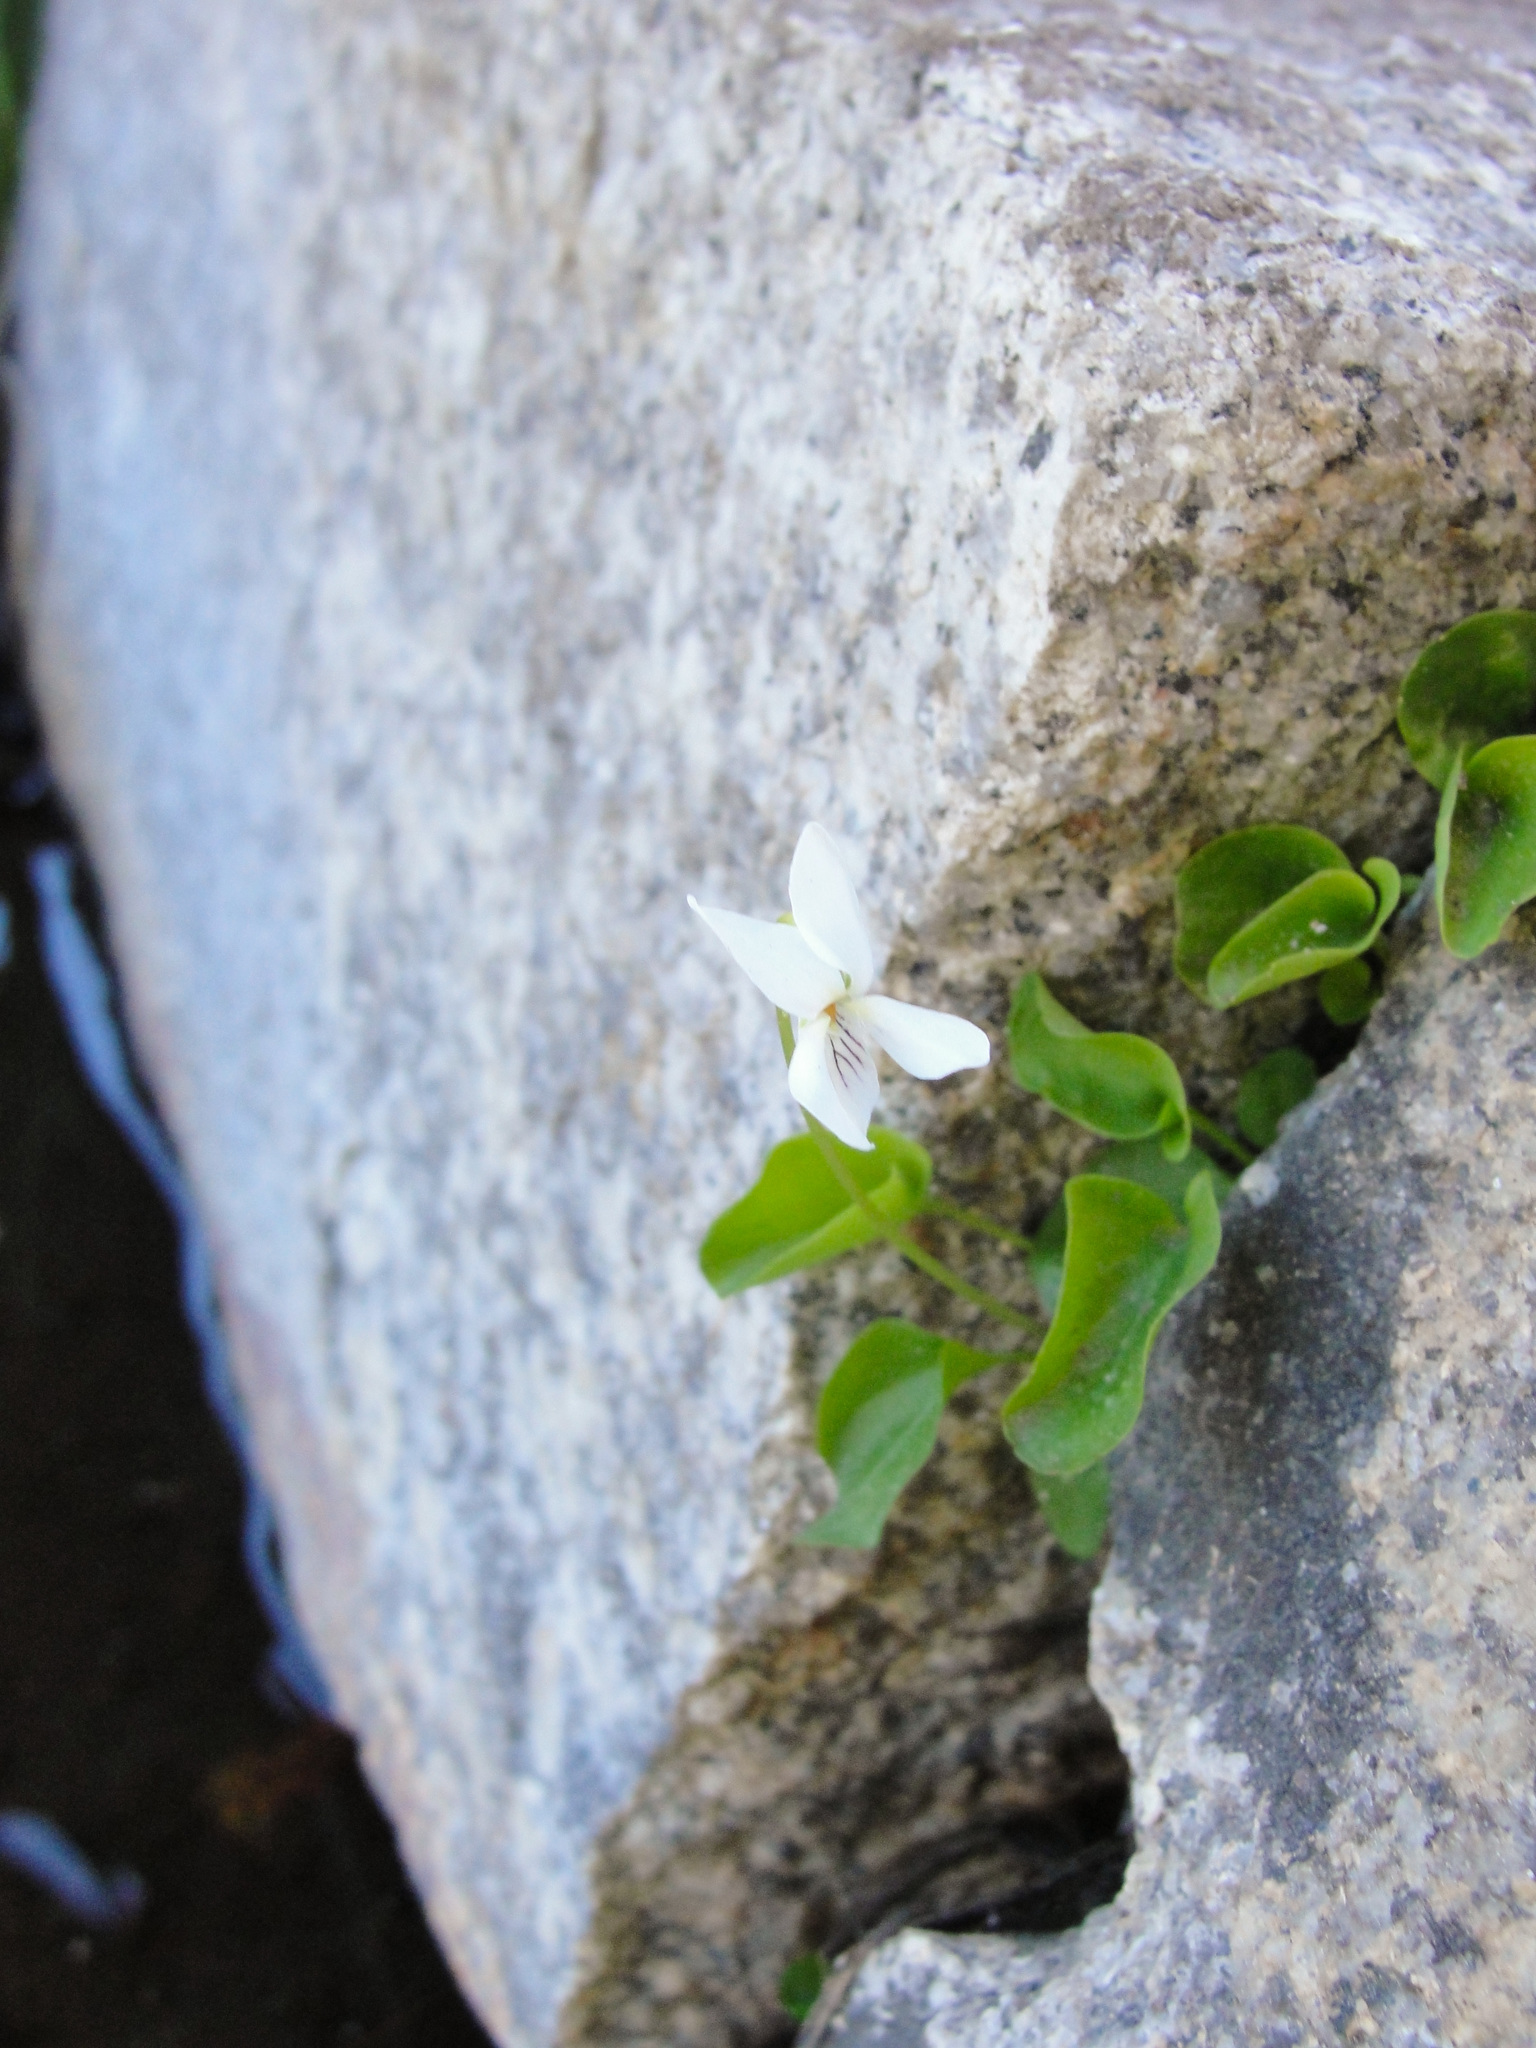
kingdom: Plantae
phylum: Tracheophyta
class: Magnoliopsida
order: Malpighiales
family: Violaceae
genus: Viola
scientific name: Viola macloskeyi
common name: Macloskey's violet
